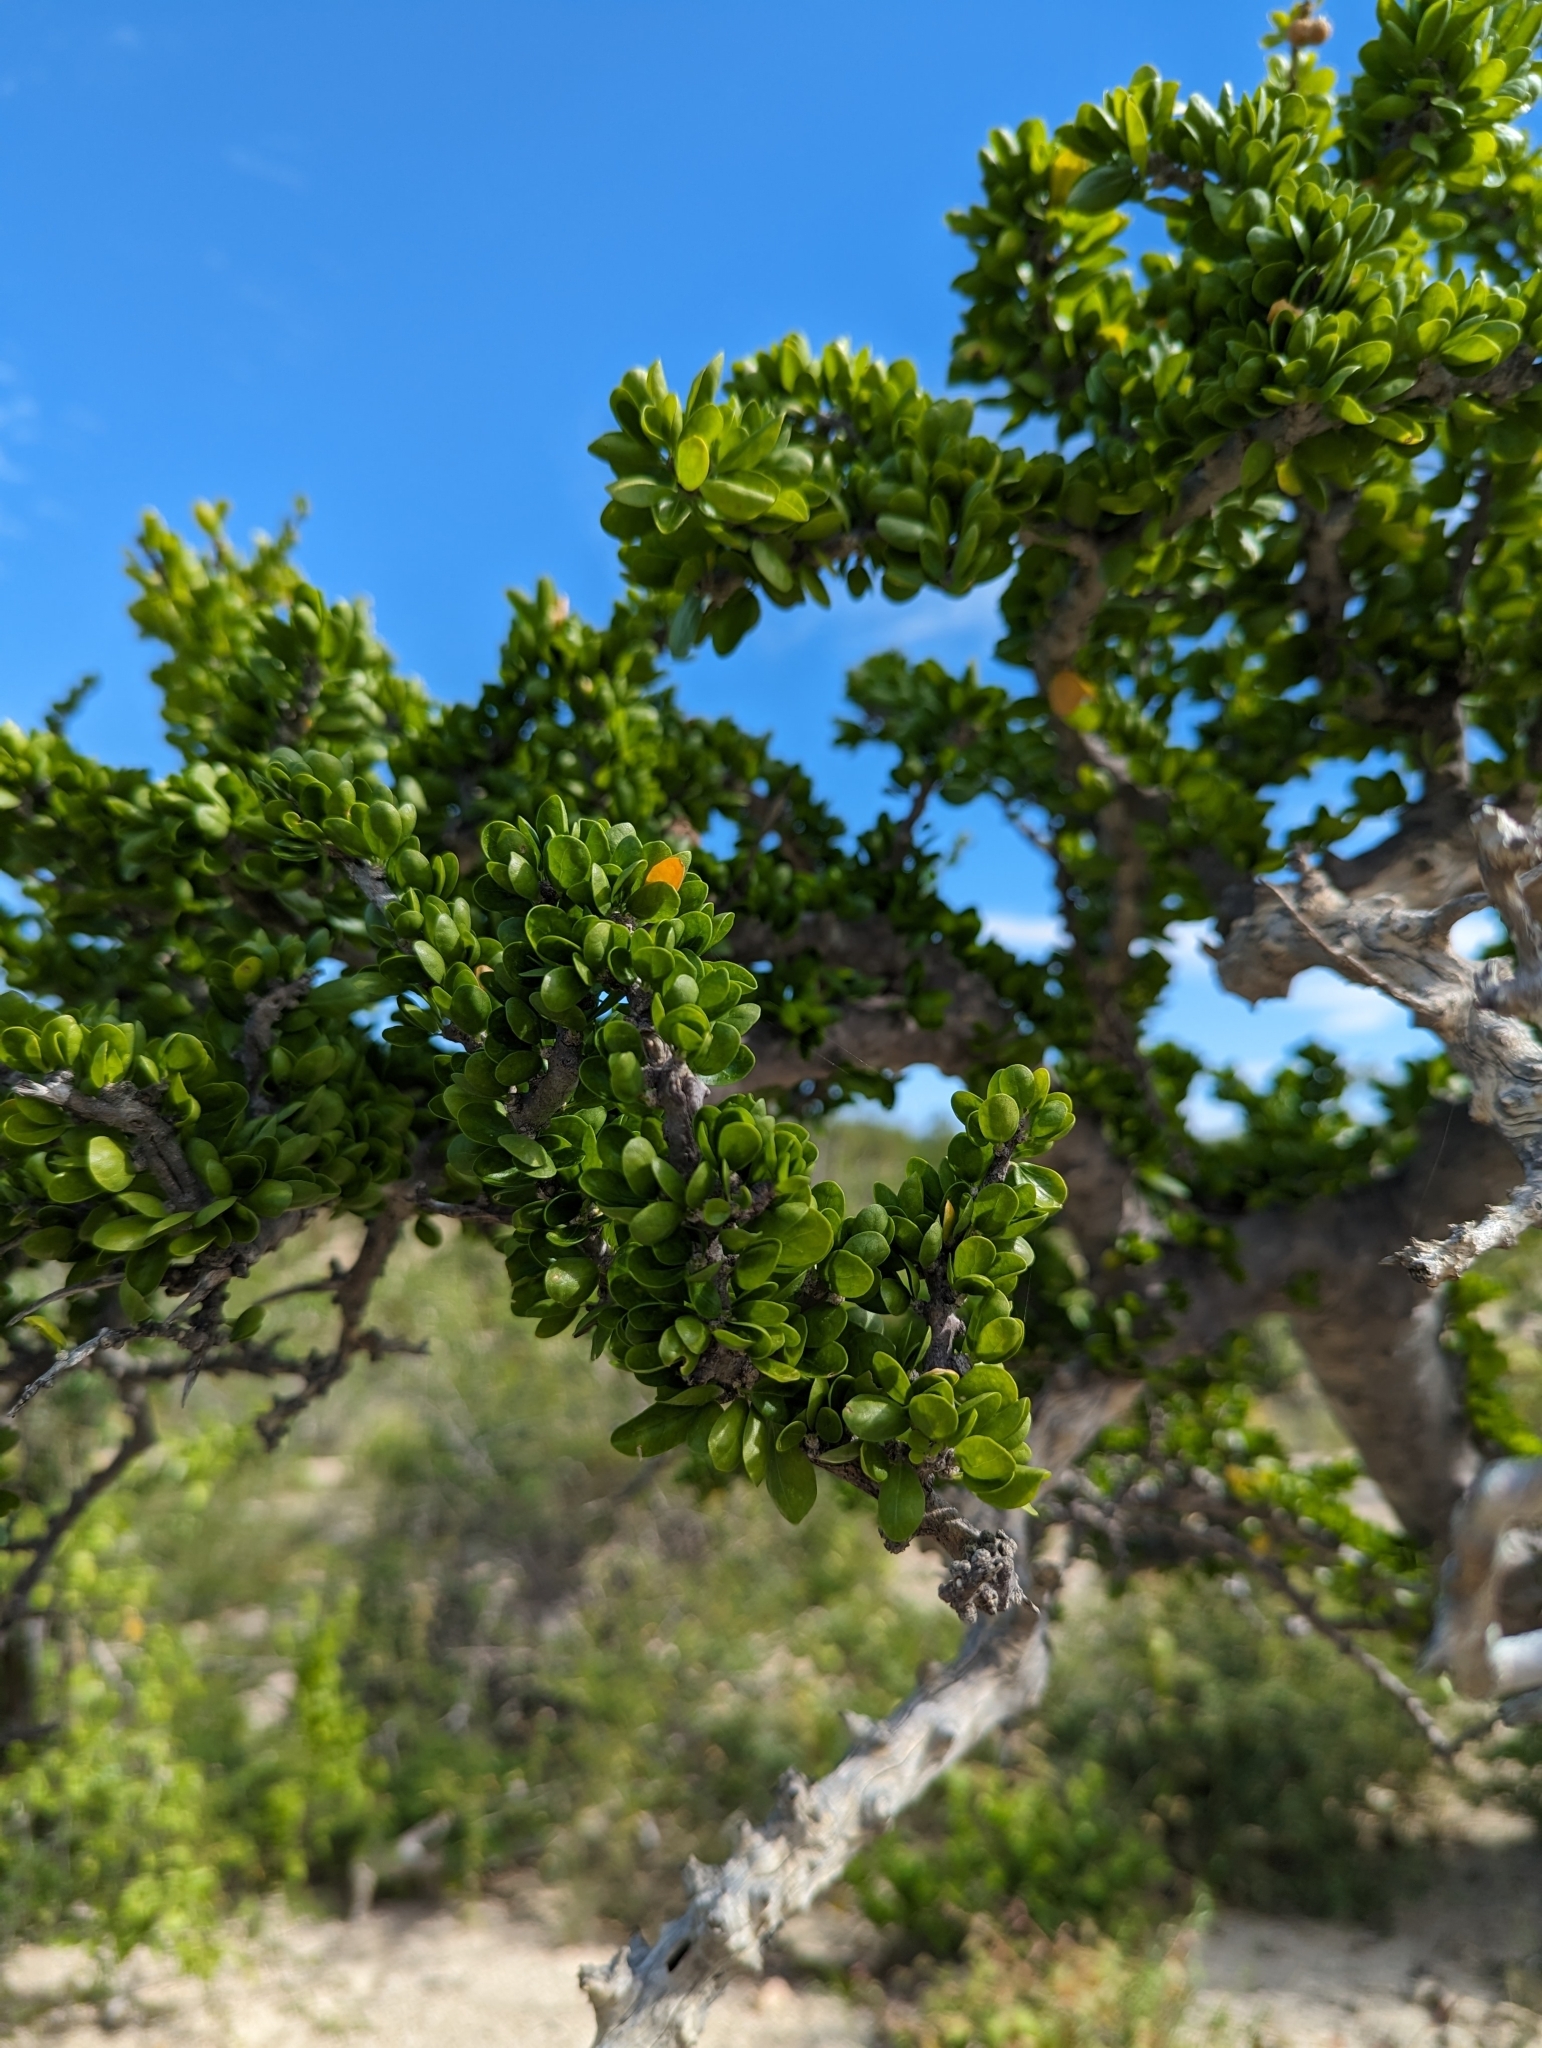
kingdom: Plantae
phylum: Tracheophyta
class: Magnoliopsida
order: Malpighiales
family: Euphorbiaceae
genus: Adelia
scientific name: Adelia brandegeei
